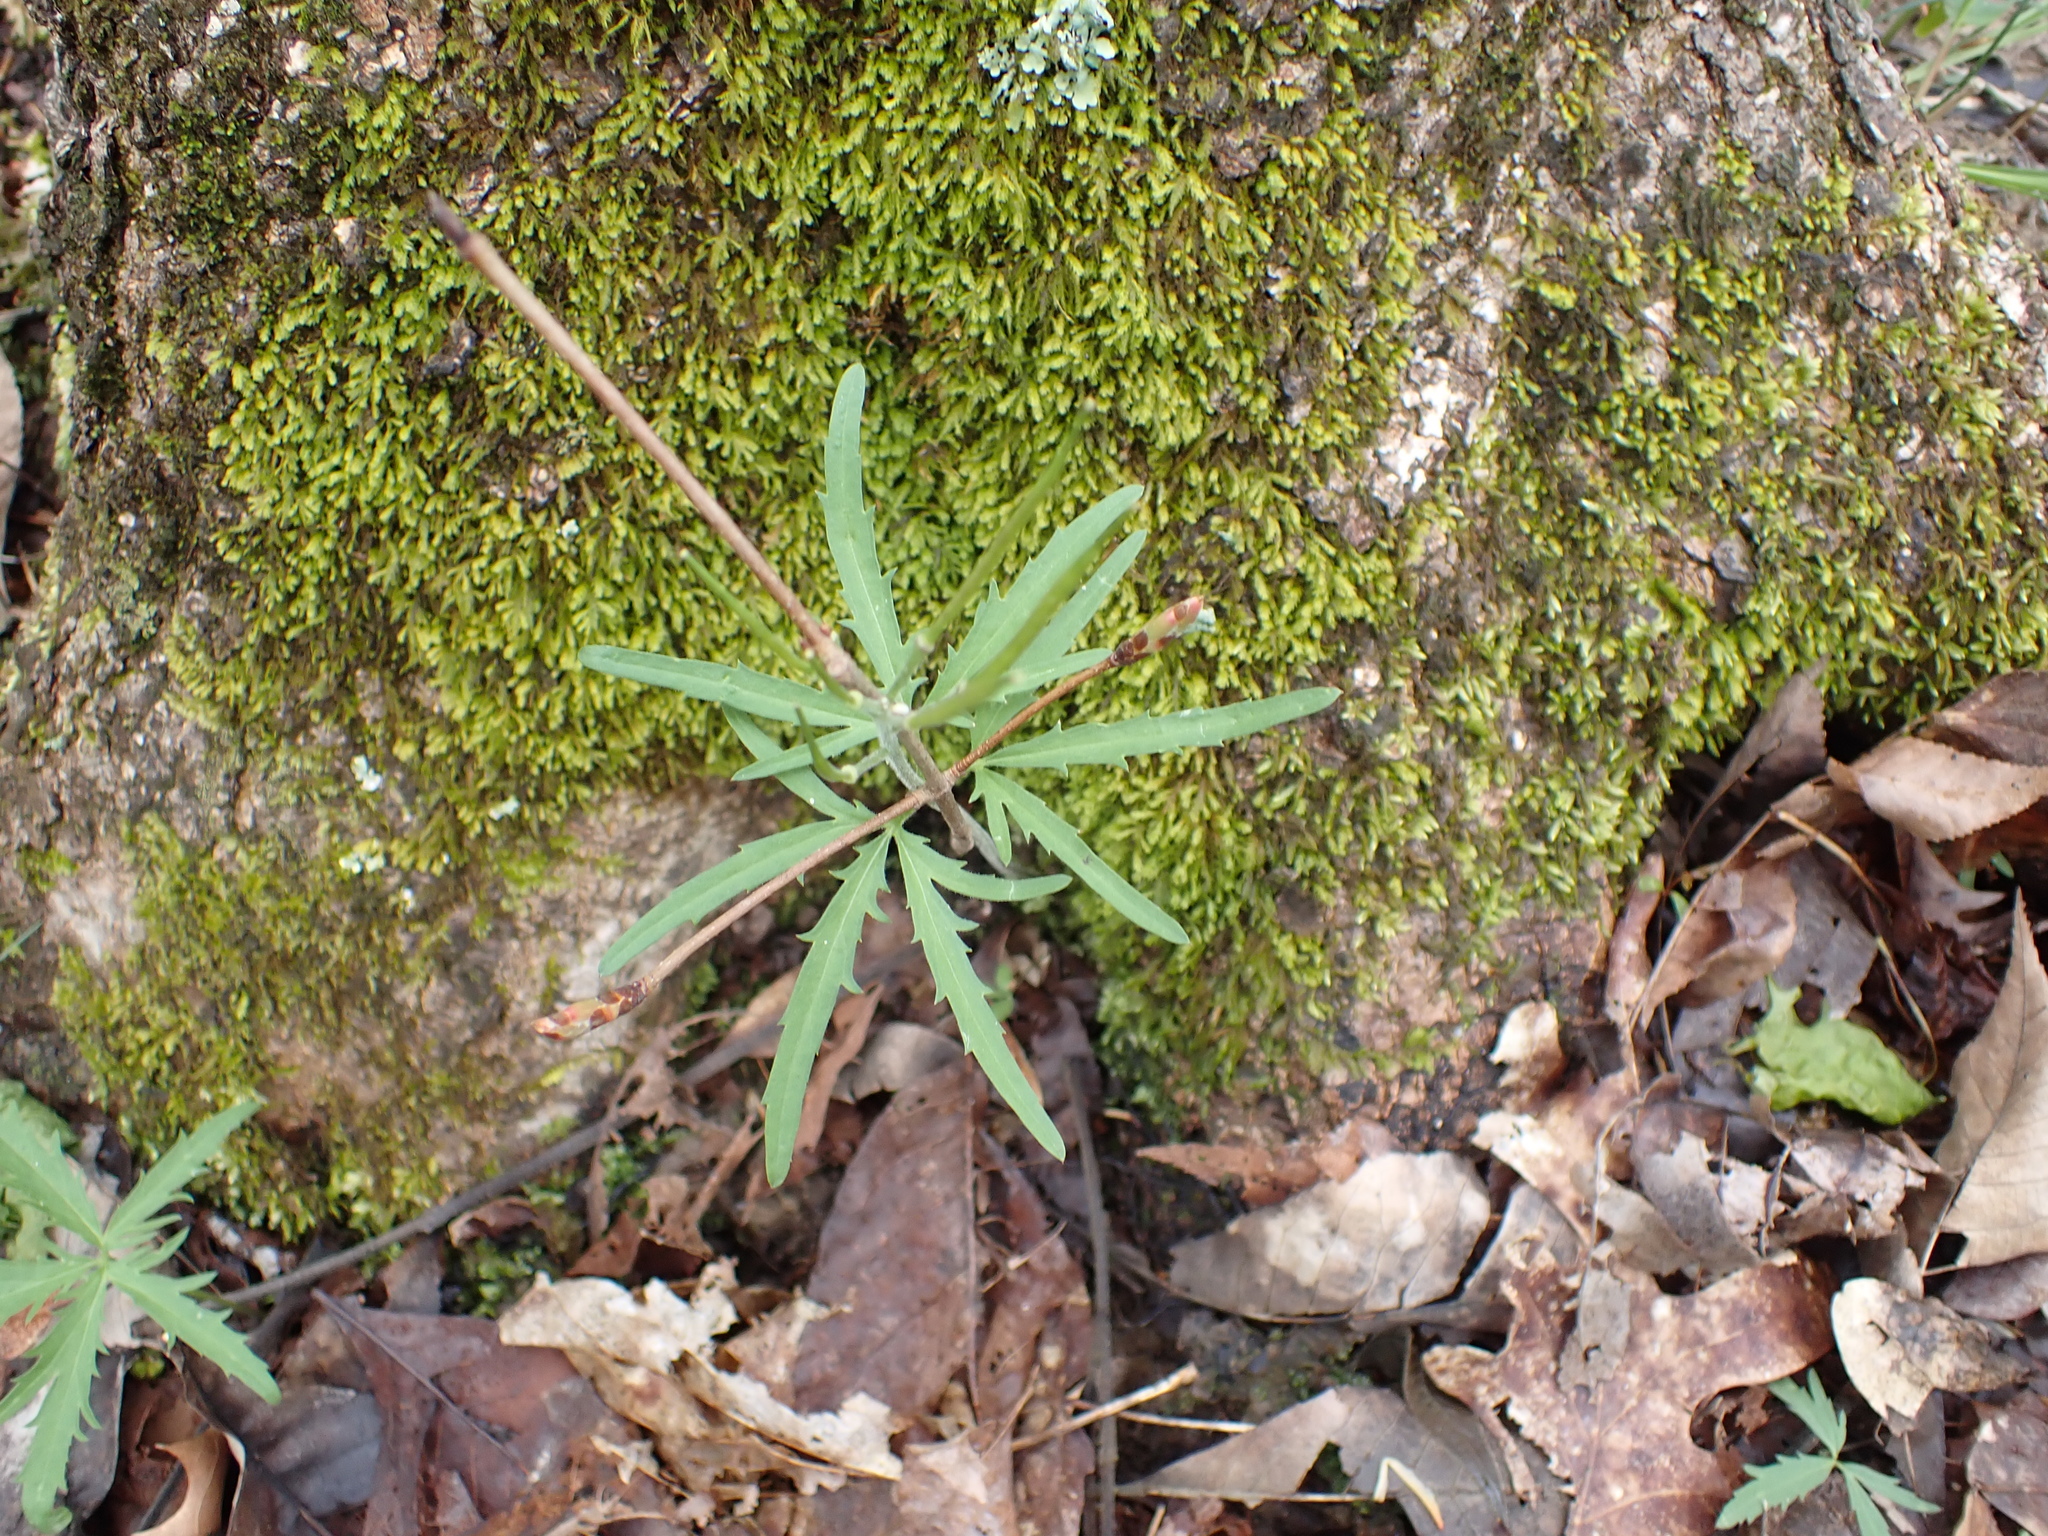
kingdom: Plantae
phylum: Tracheophyta
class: Magnoliopsida
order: Brassicales
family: Brassicaceae
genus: Cardamine
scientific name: Cardamine concatenata
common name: Cut-leaf toothcup
